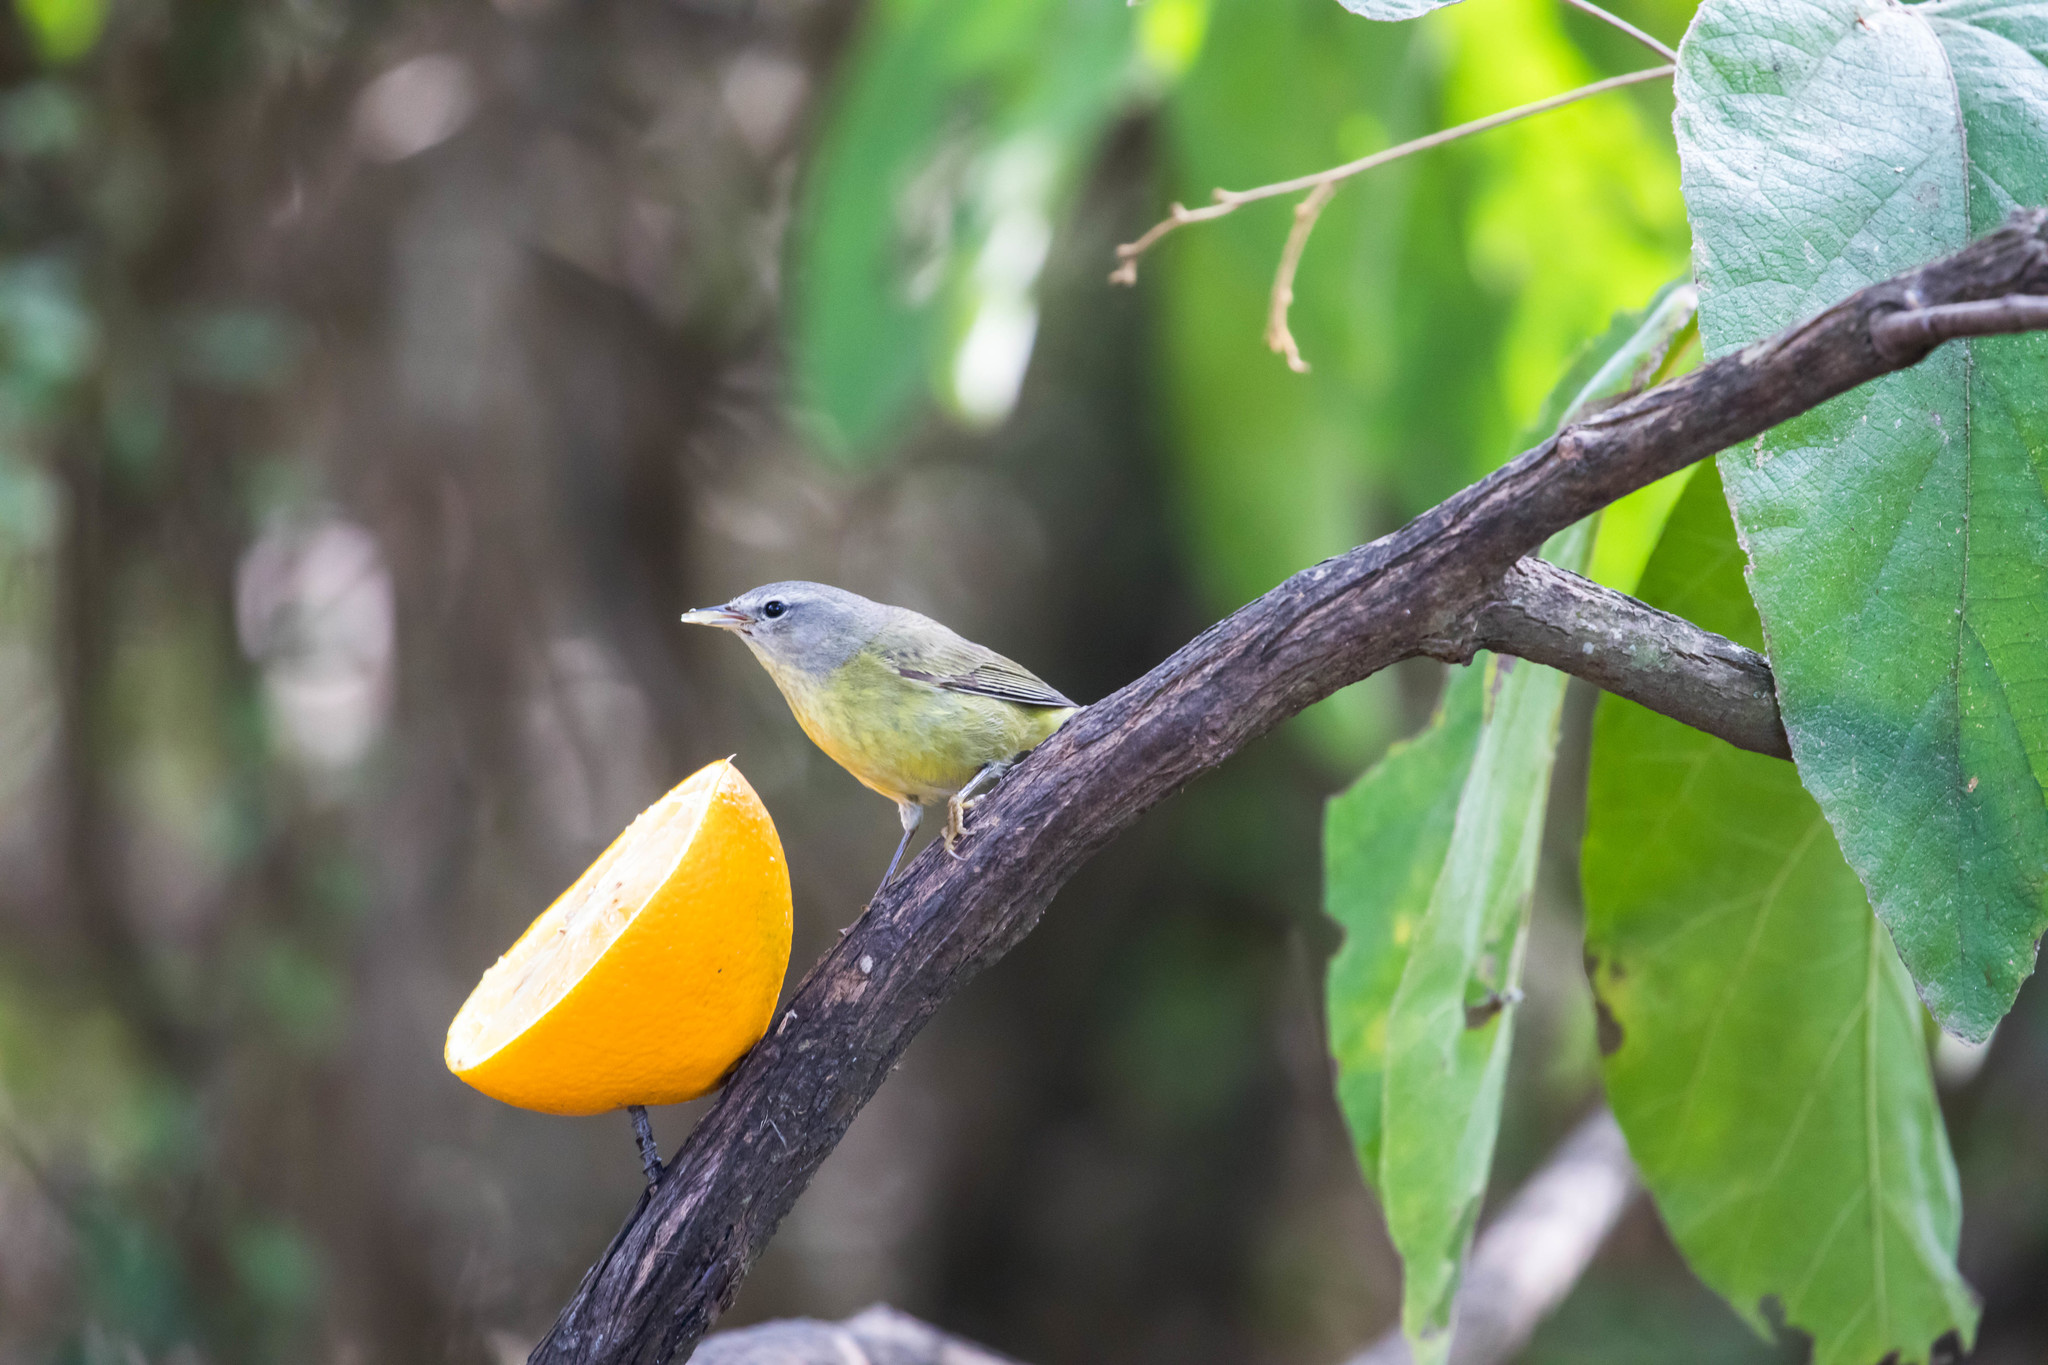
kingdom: Animalia
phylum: Chordata
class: Aves
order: Passeriformes
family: Parulidae
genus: Leiothlypis
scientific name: Leiothlypis celata
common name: Orange-crowned warbler
